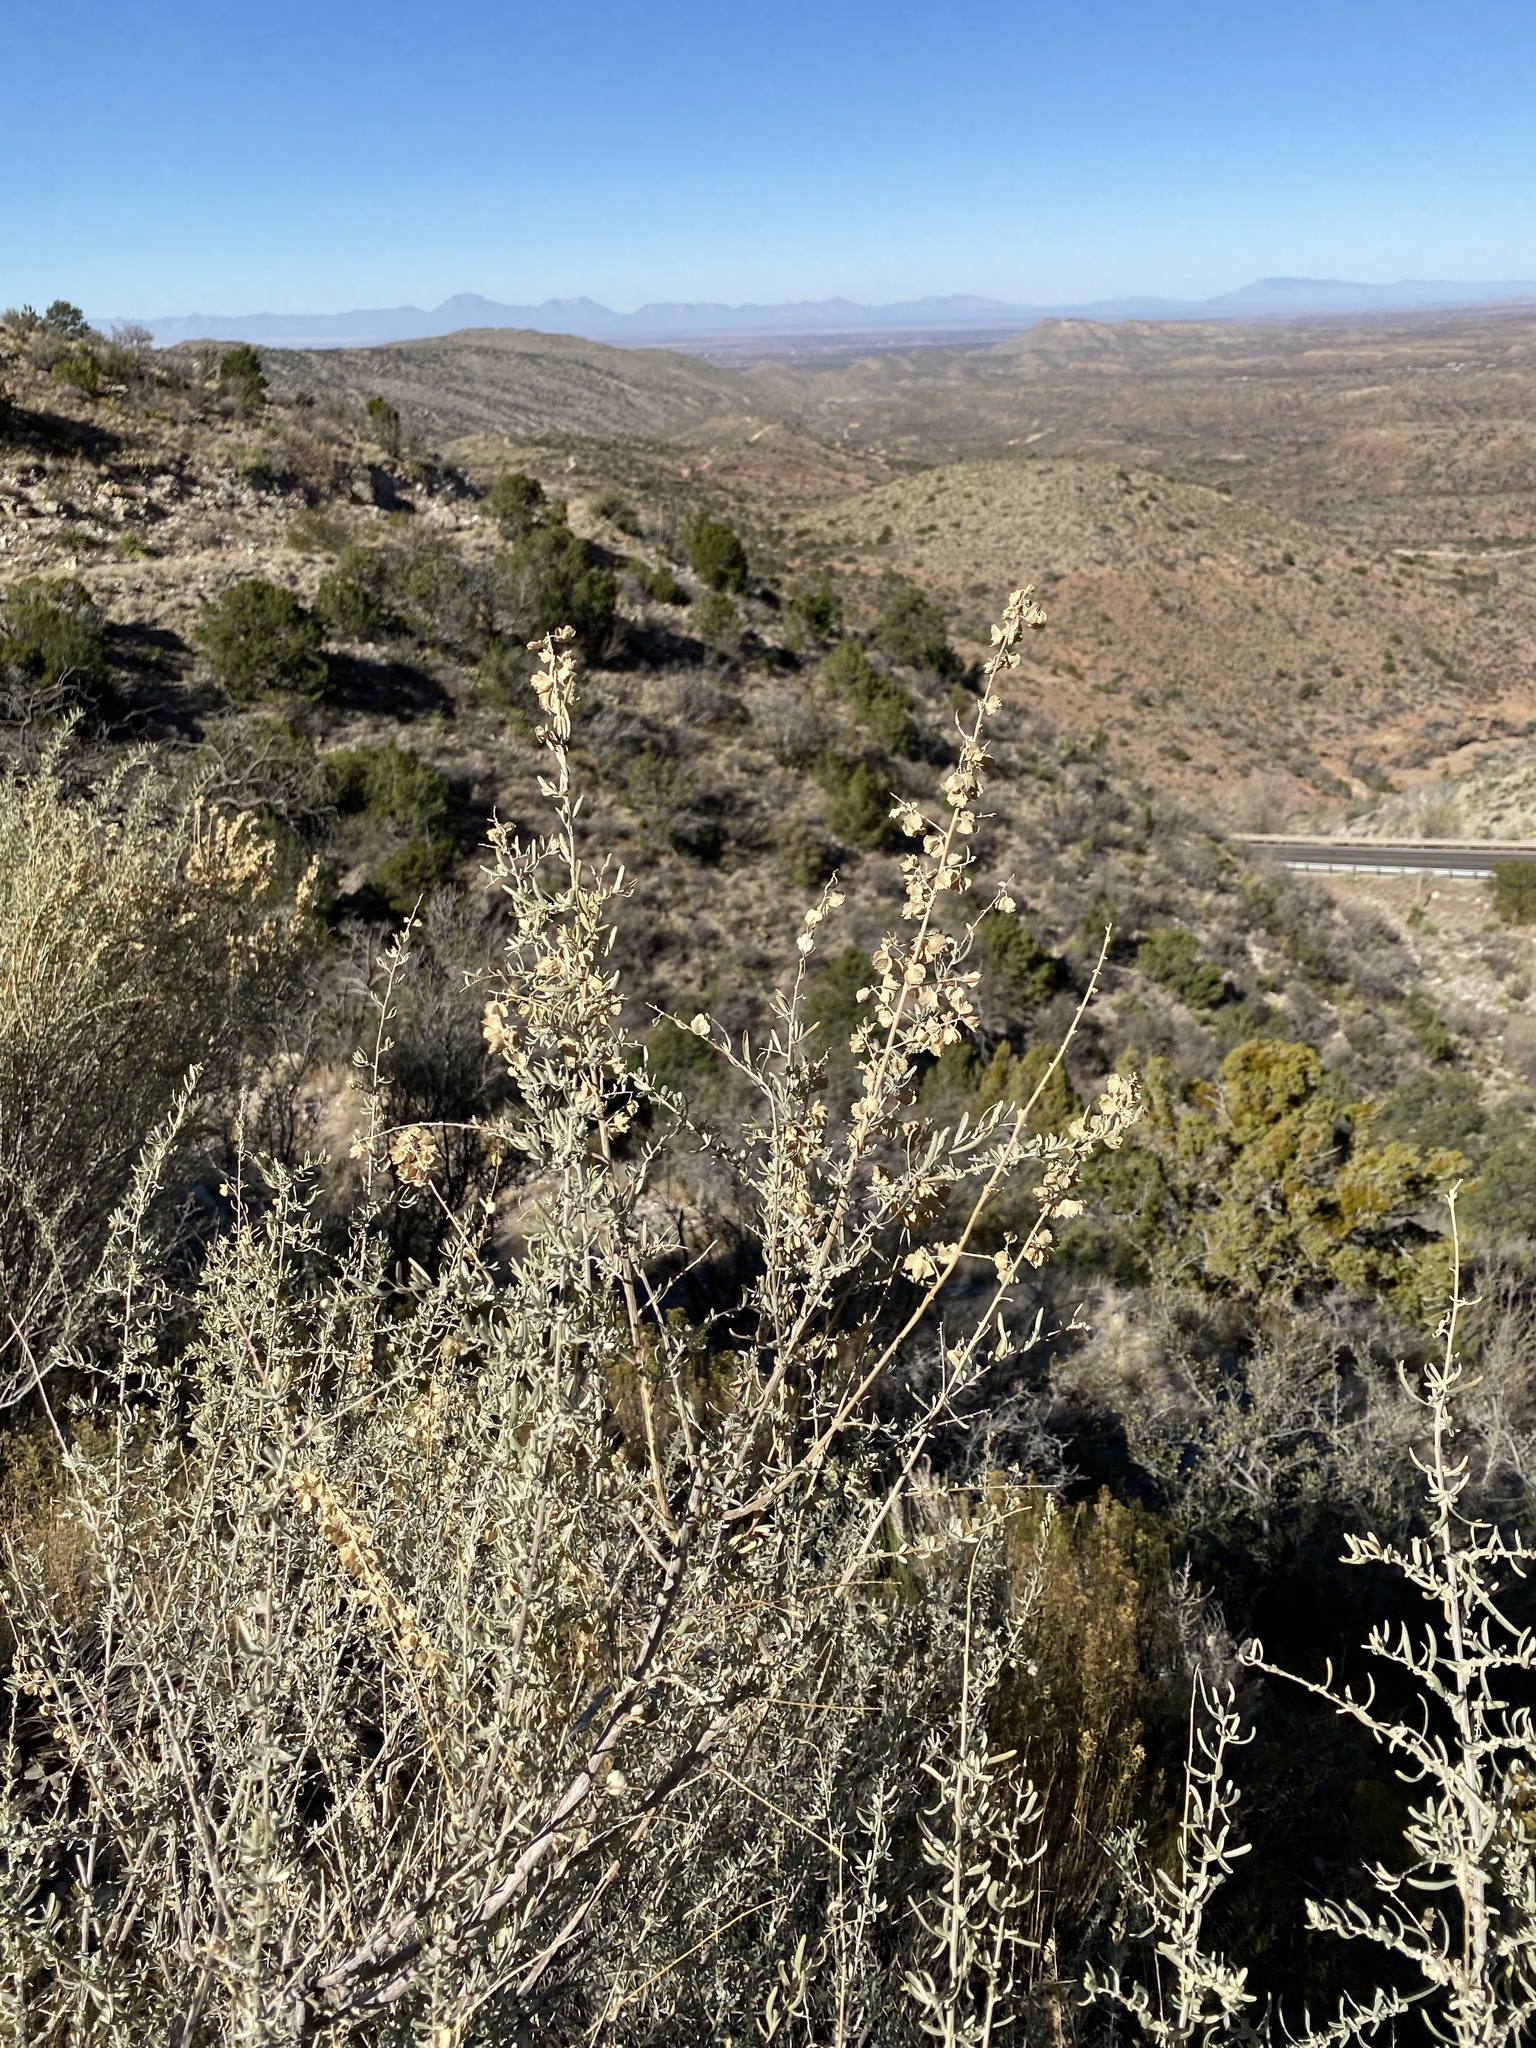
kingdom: Plantae
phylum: Tracheophyta
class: Magnoliopsida
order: Caryophyllales
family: Amaranthaceae
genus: Atriplex
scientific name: Atriplex canescens
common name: Four-wing saltbush
